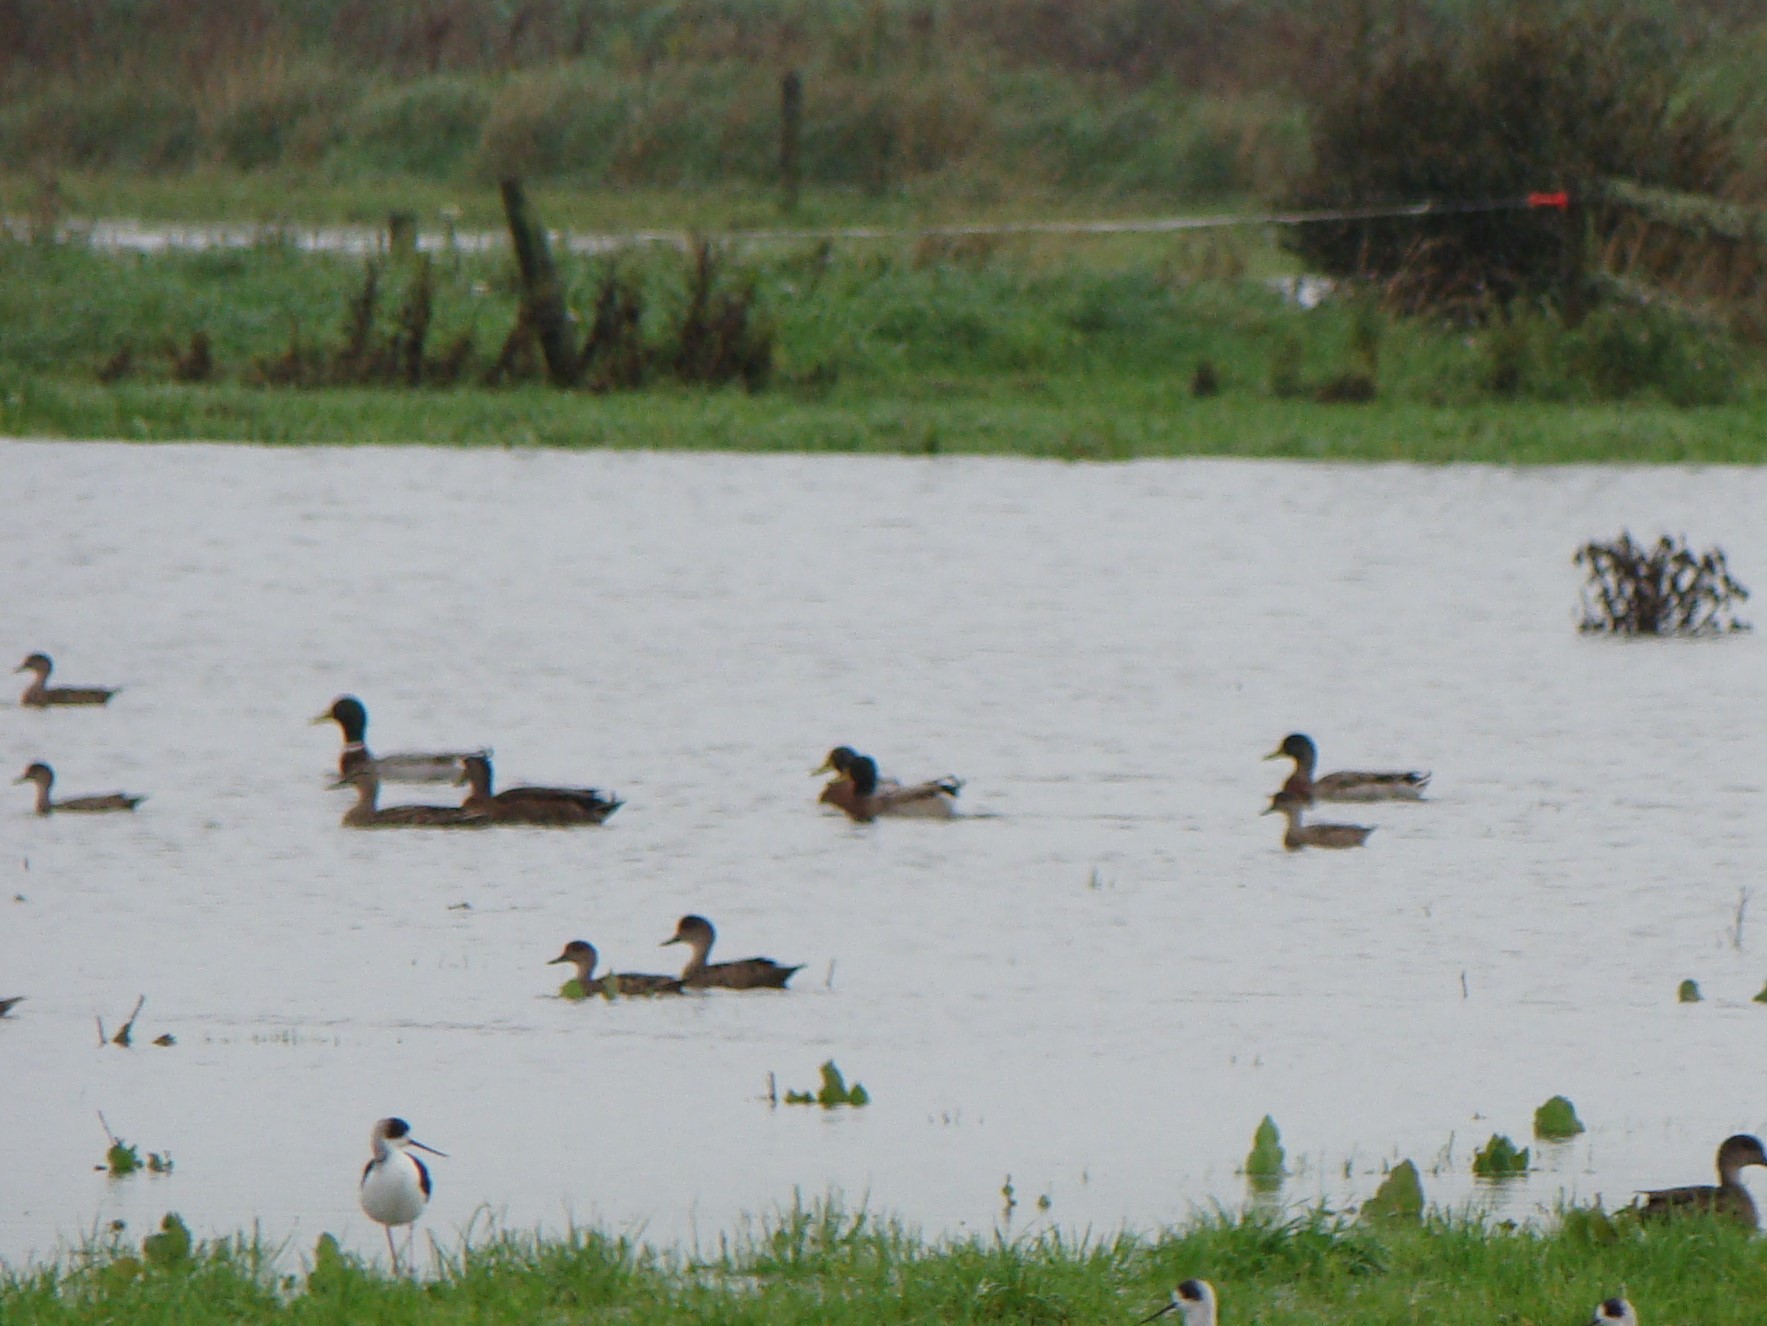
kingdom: Animalia
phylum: Chordata
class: Aves
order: Anseriformes
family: Anatidae
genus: Anas
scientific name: Anas platyrhynchos
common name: Mallard
